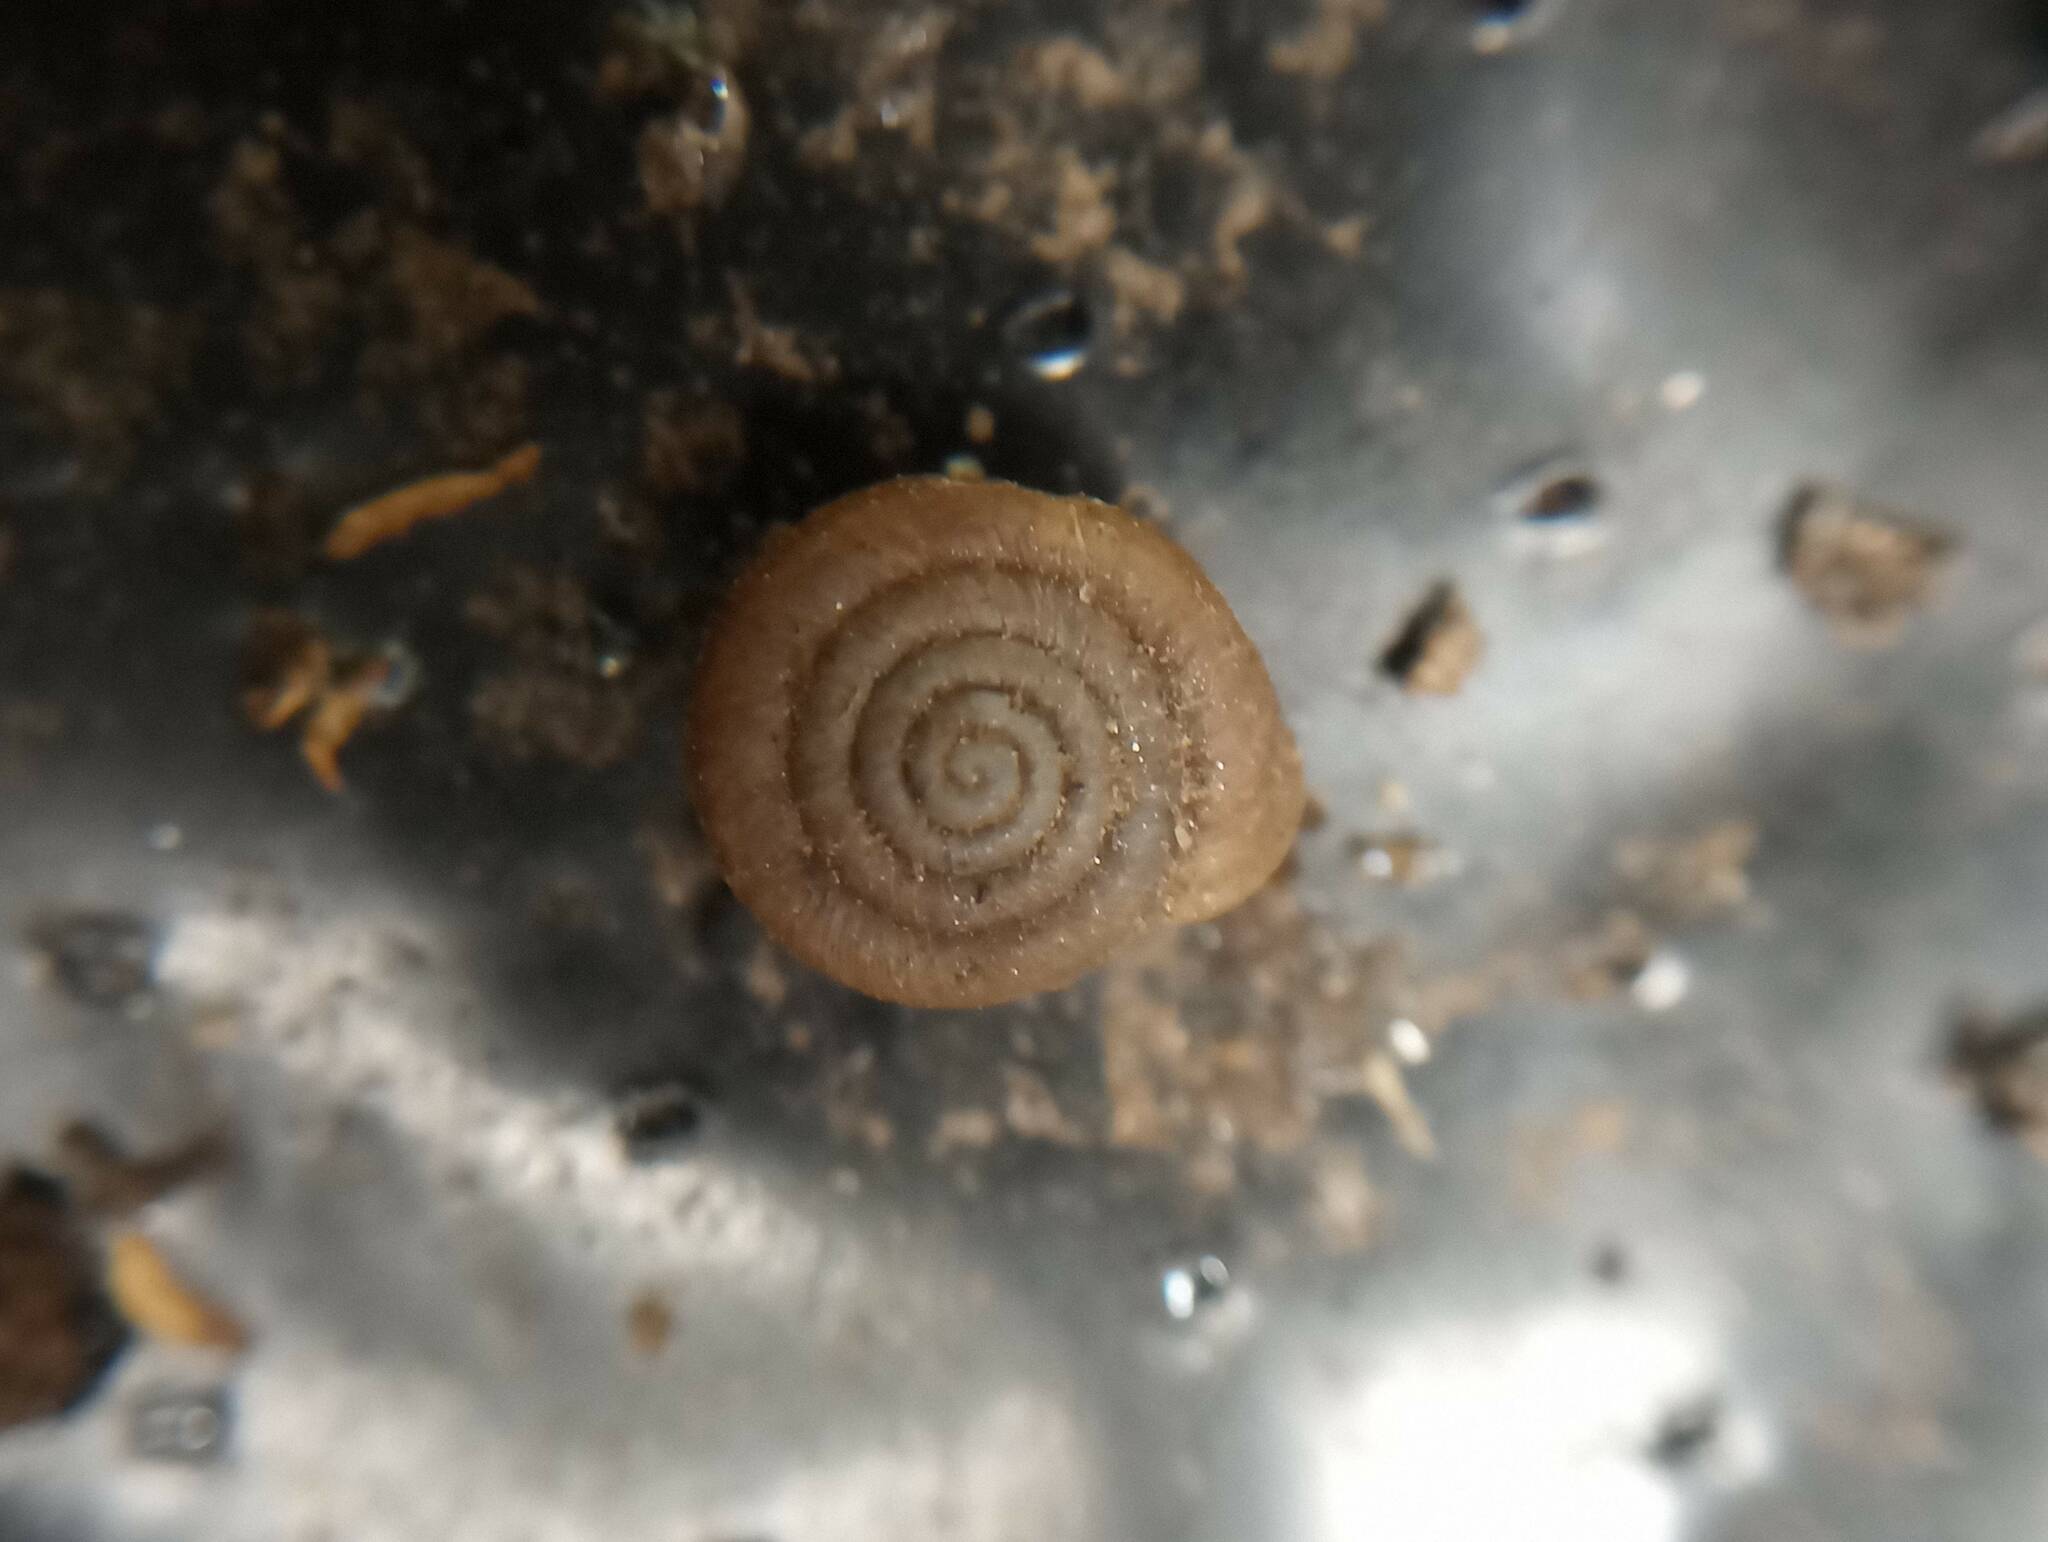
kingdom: Animalia
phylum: Mollusca
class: Gastropoda
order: Stylommatophora
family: Polygyridae
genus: Polygyra
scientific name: Polygyra cereolus
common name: Southern flatcone snail
